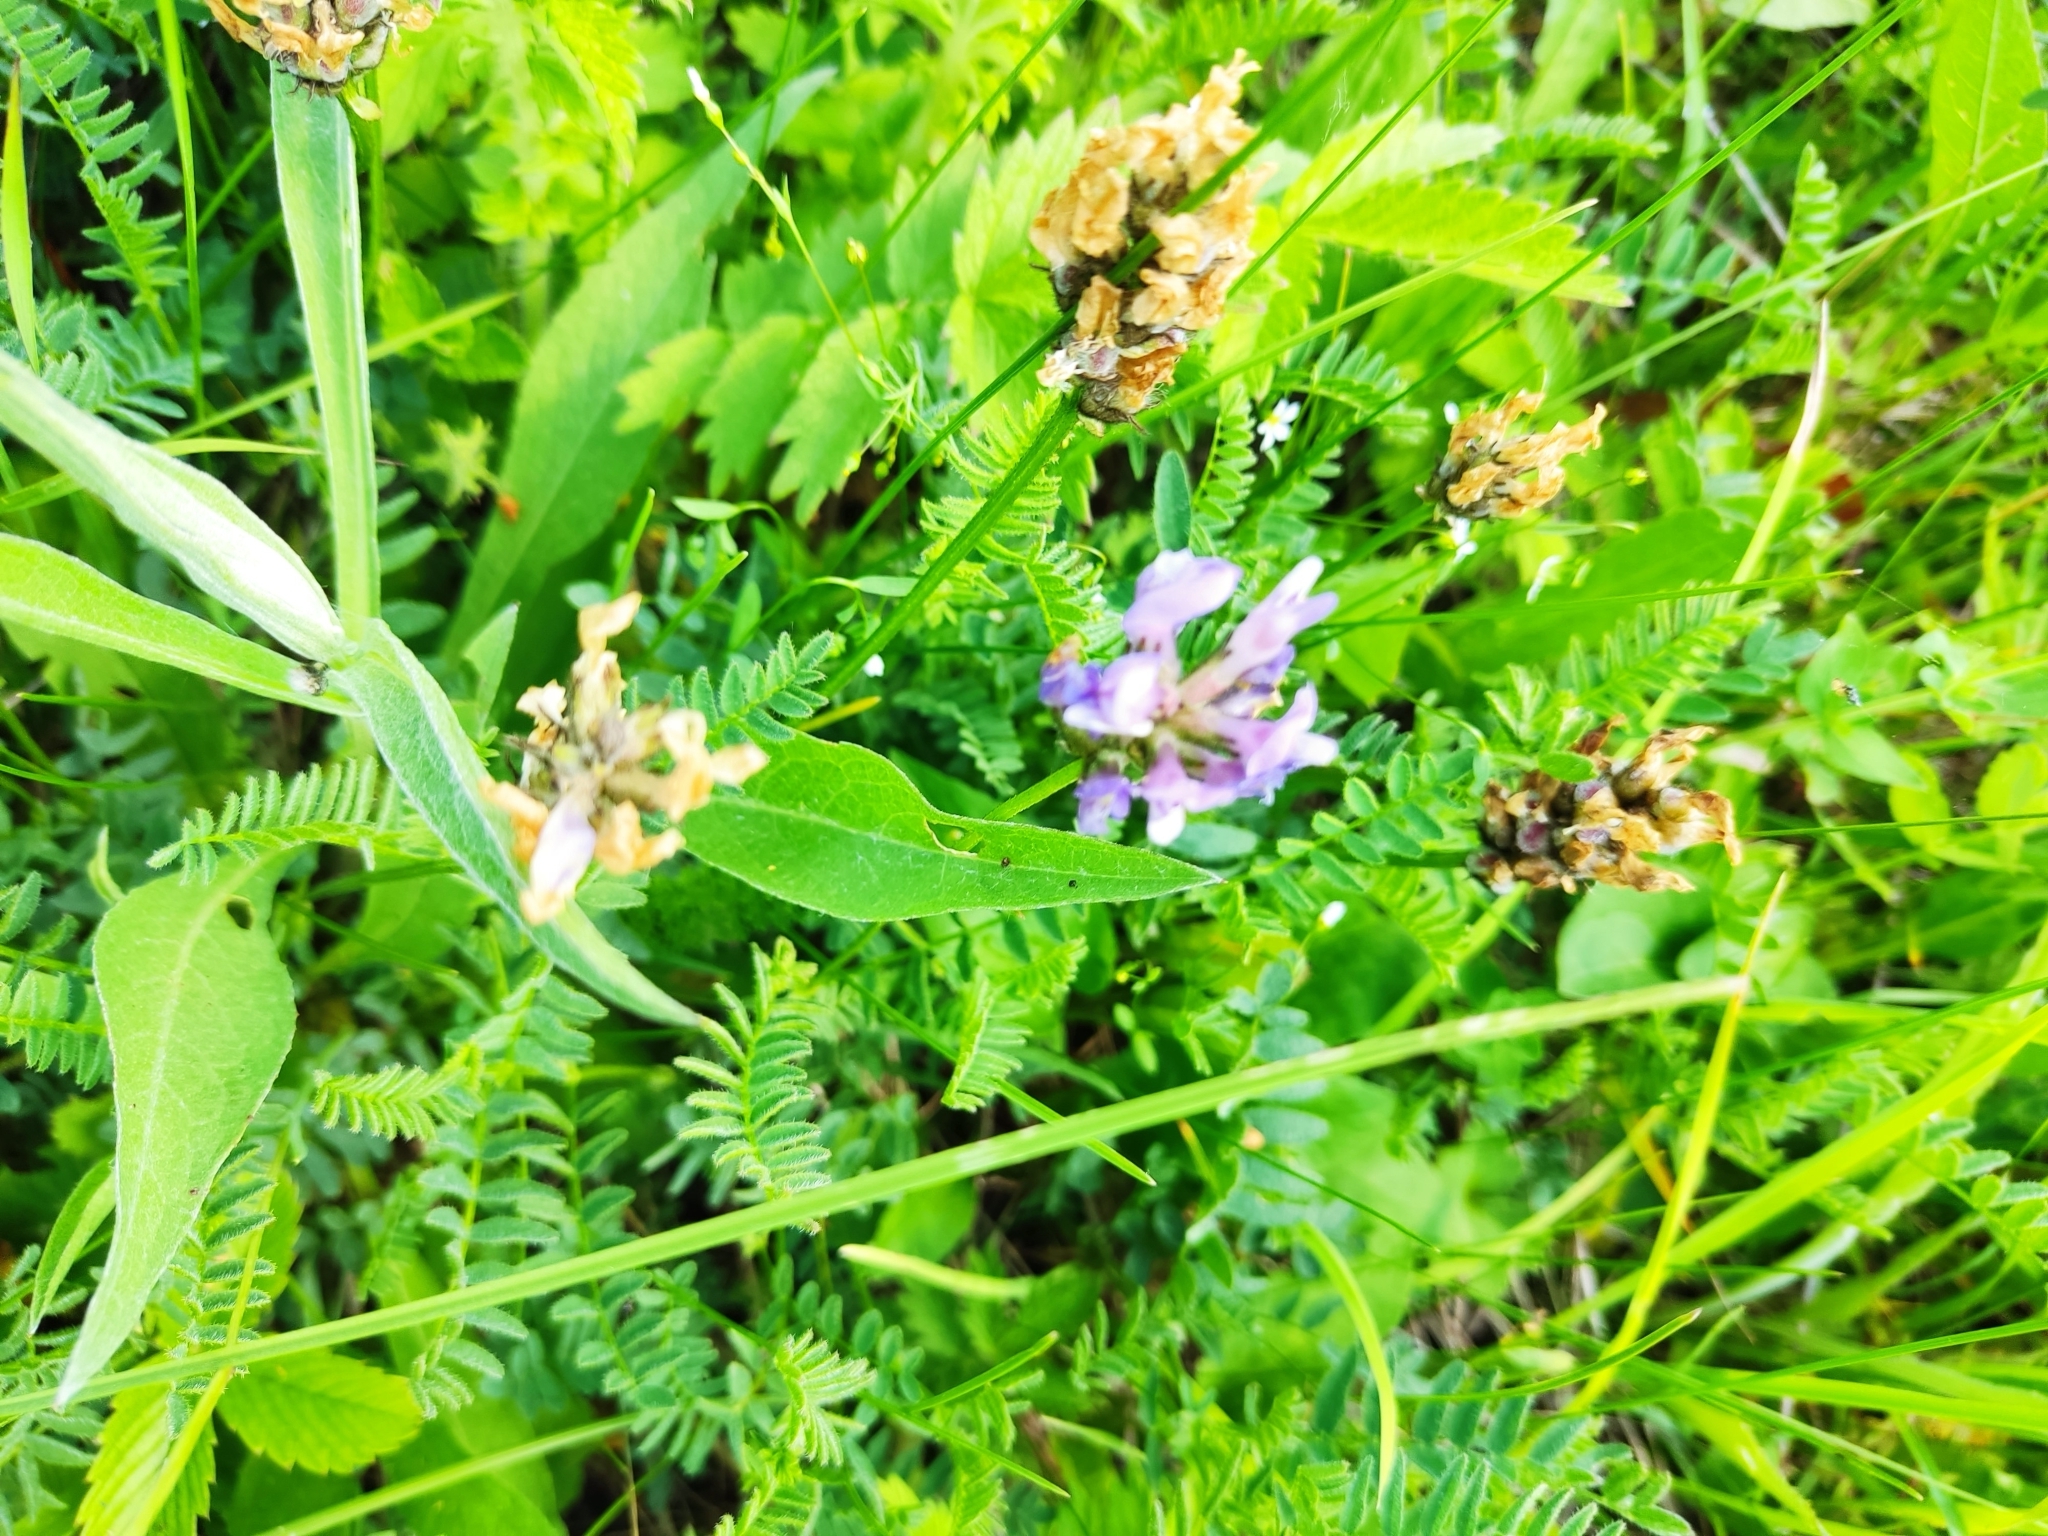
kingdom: Plantae
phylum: Tracheophyta
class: Magnoliopsida
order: Fabales
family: Fabaceae
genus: Astragalus
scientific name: Astragalus danicus
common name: Purple milk-vetch
